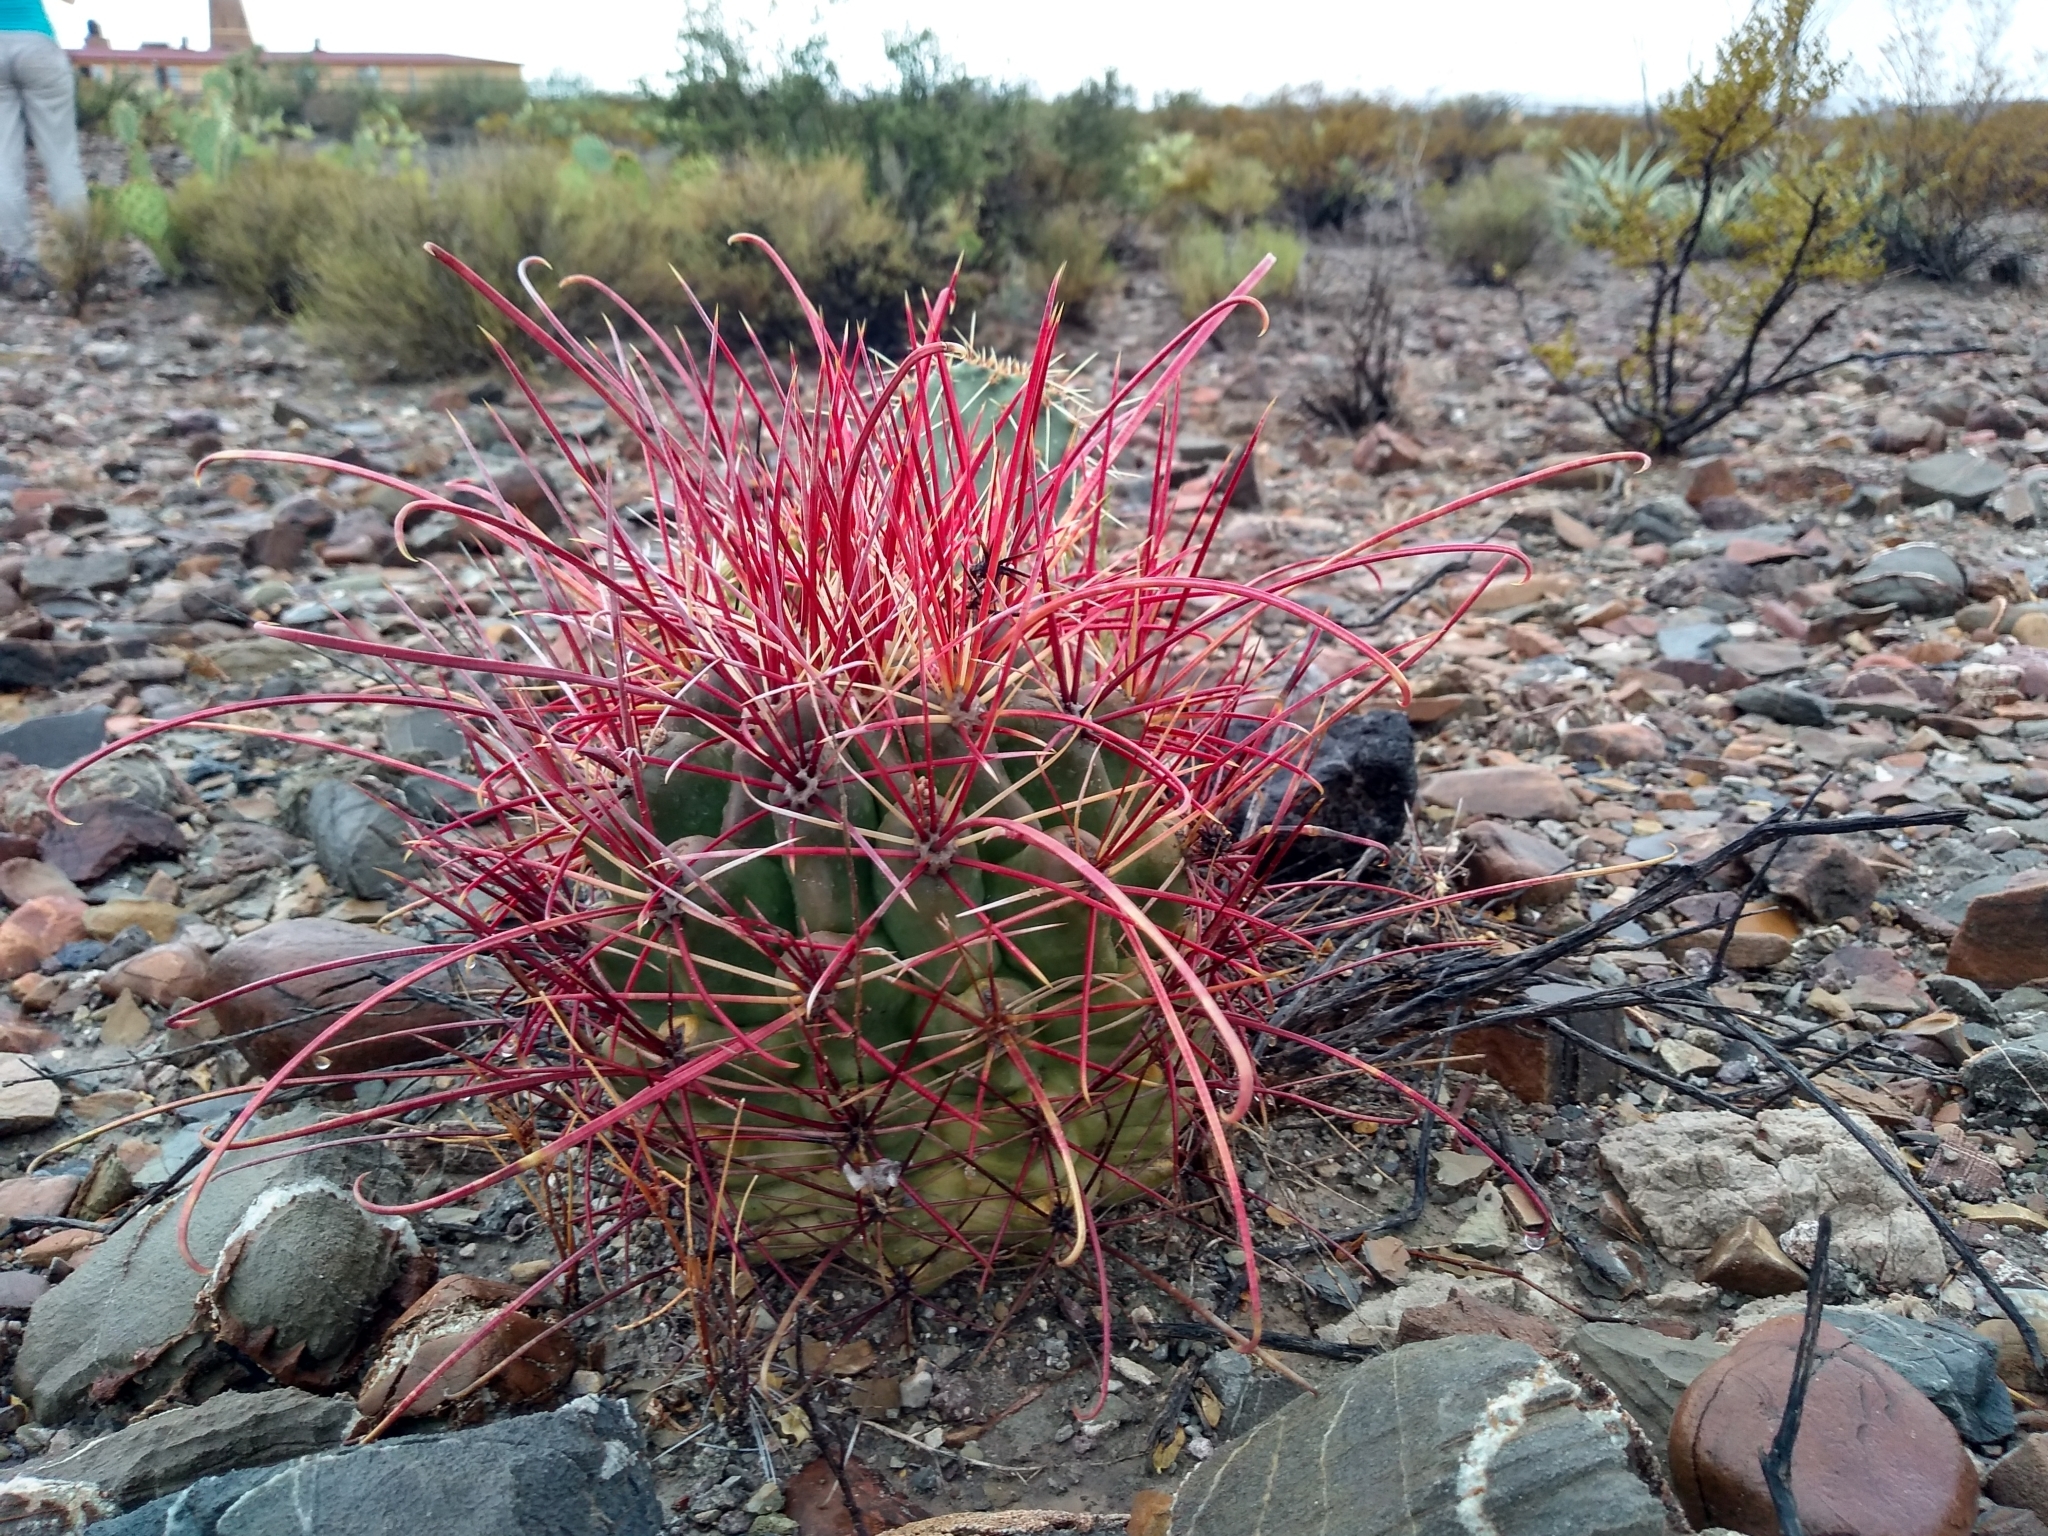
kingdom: Plantae
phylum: Tracheophyta
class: Magnoliopsida
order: Caryophyllales
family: Cactaceae
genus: Bisnaga
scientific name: Bisnaga hamatacantha
